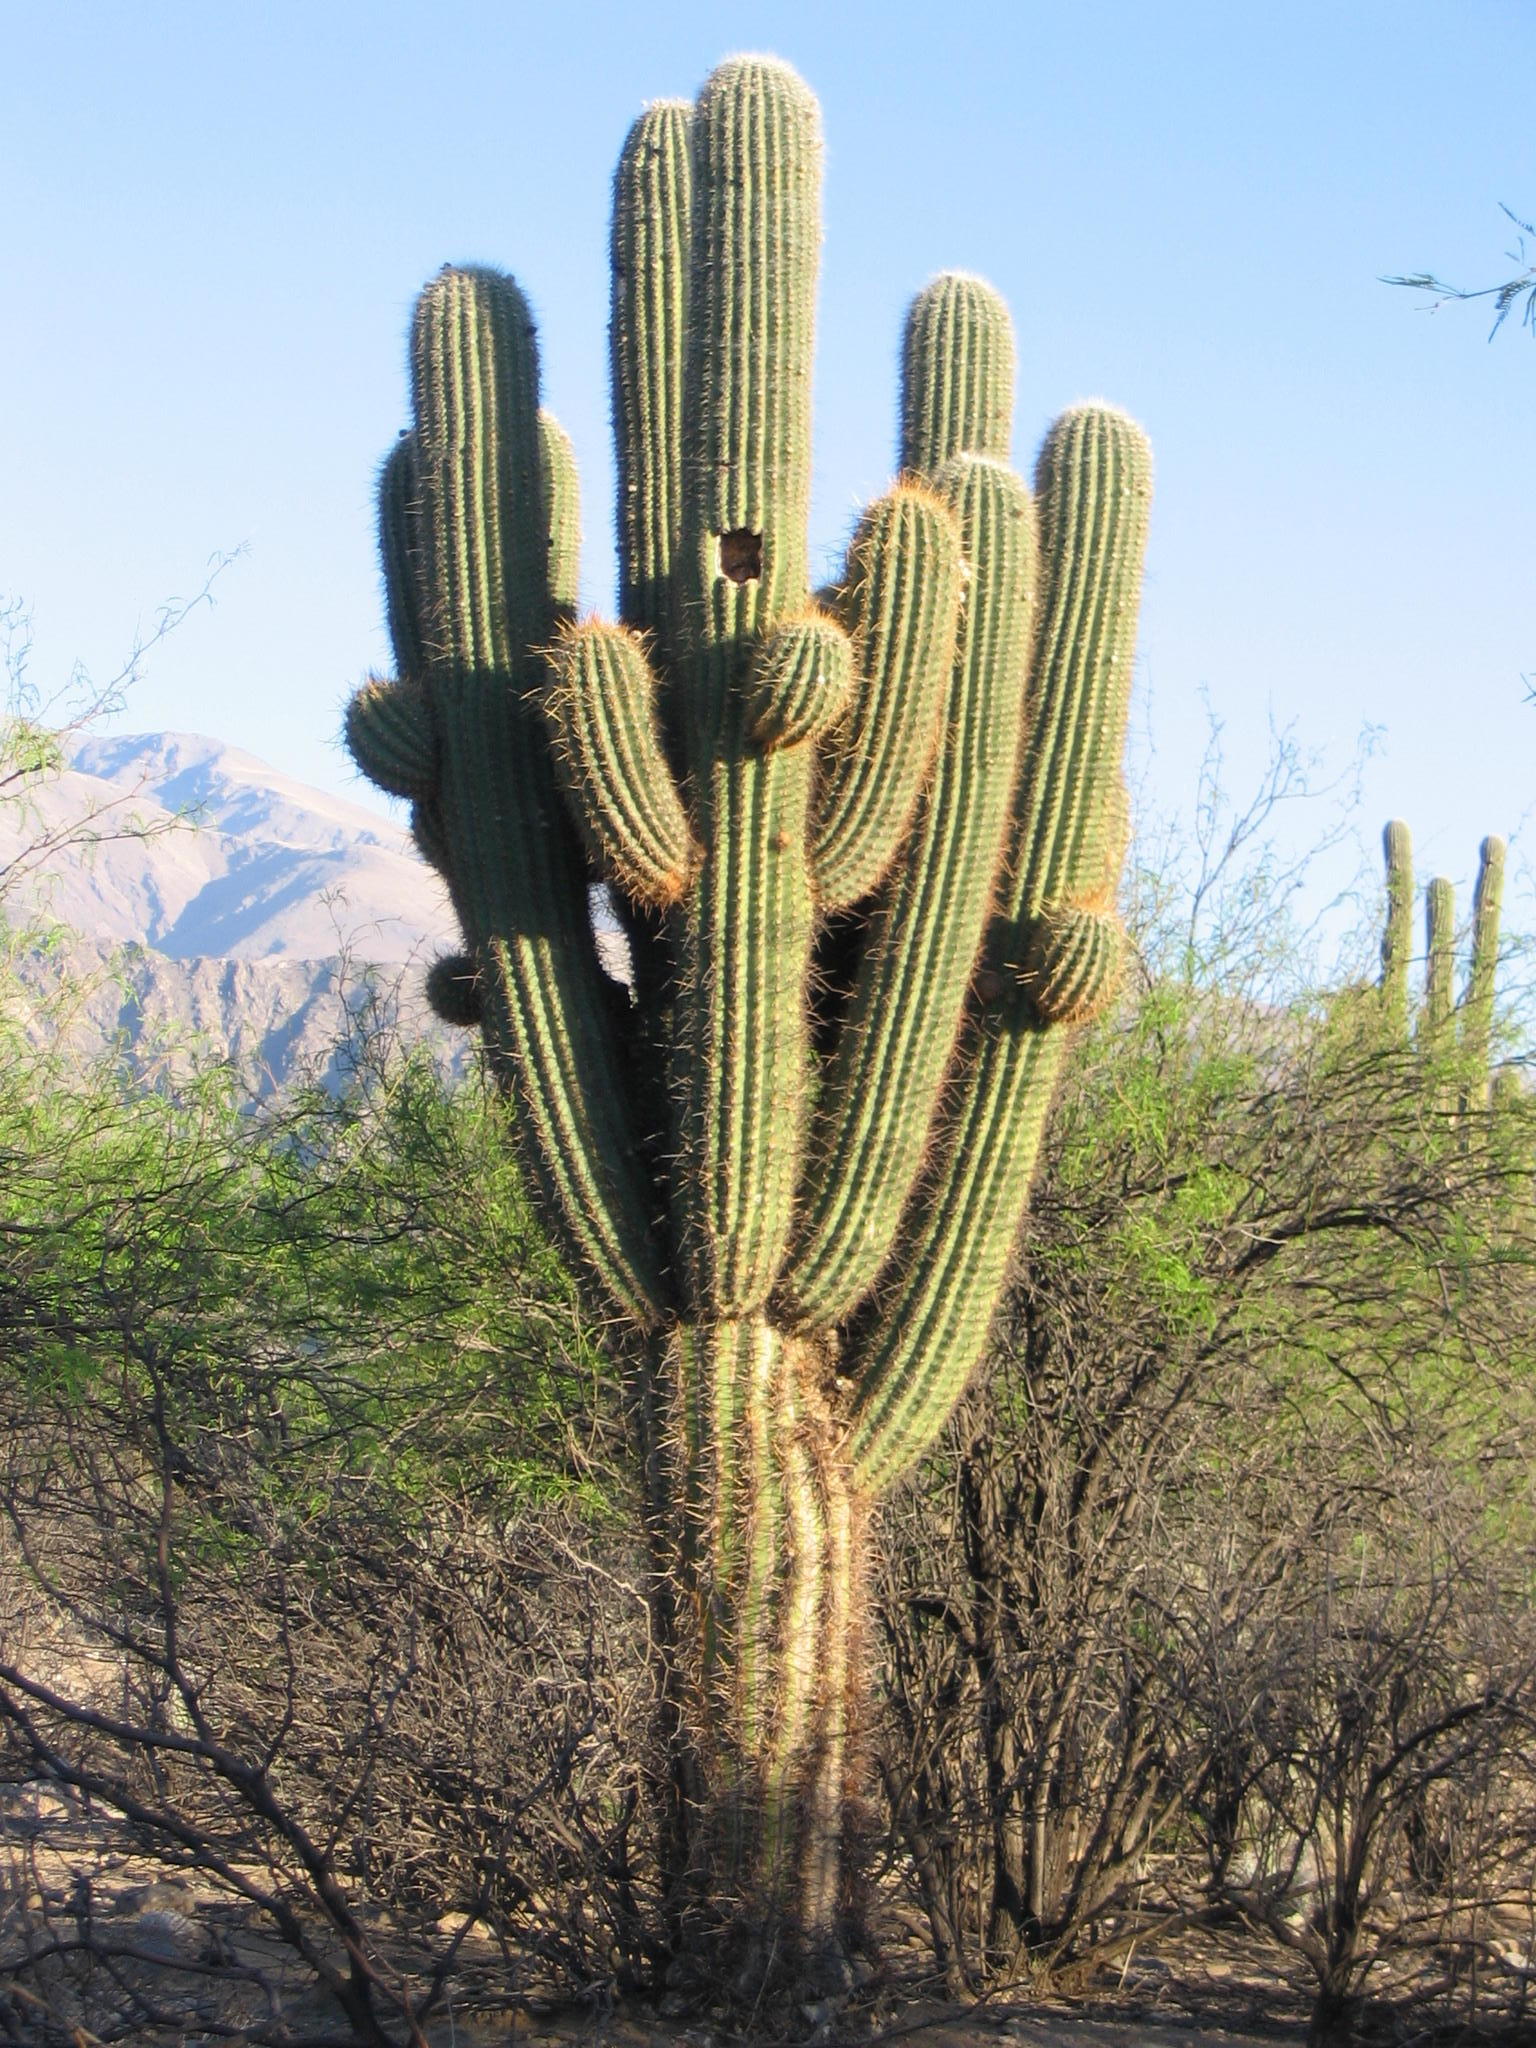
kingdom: Plantae
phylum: Tracheophyta
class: Magnoliopsida
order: Caryophyllales
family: Cactaceae
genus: Leucostele
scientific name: Leucostele atacamensis
